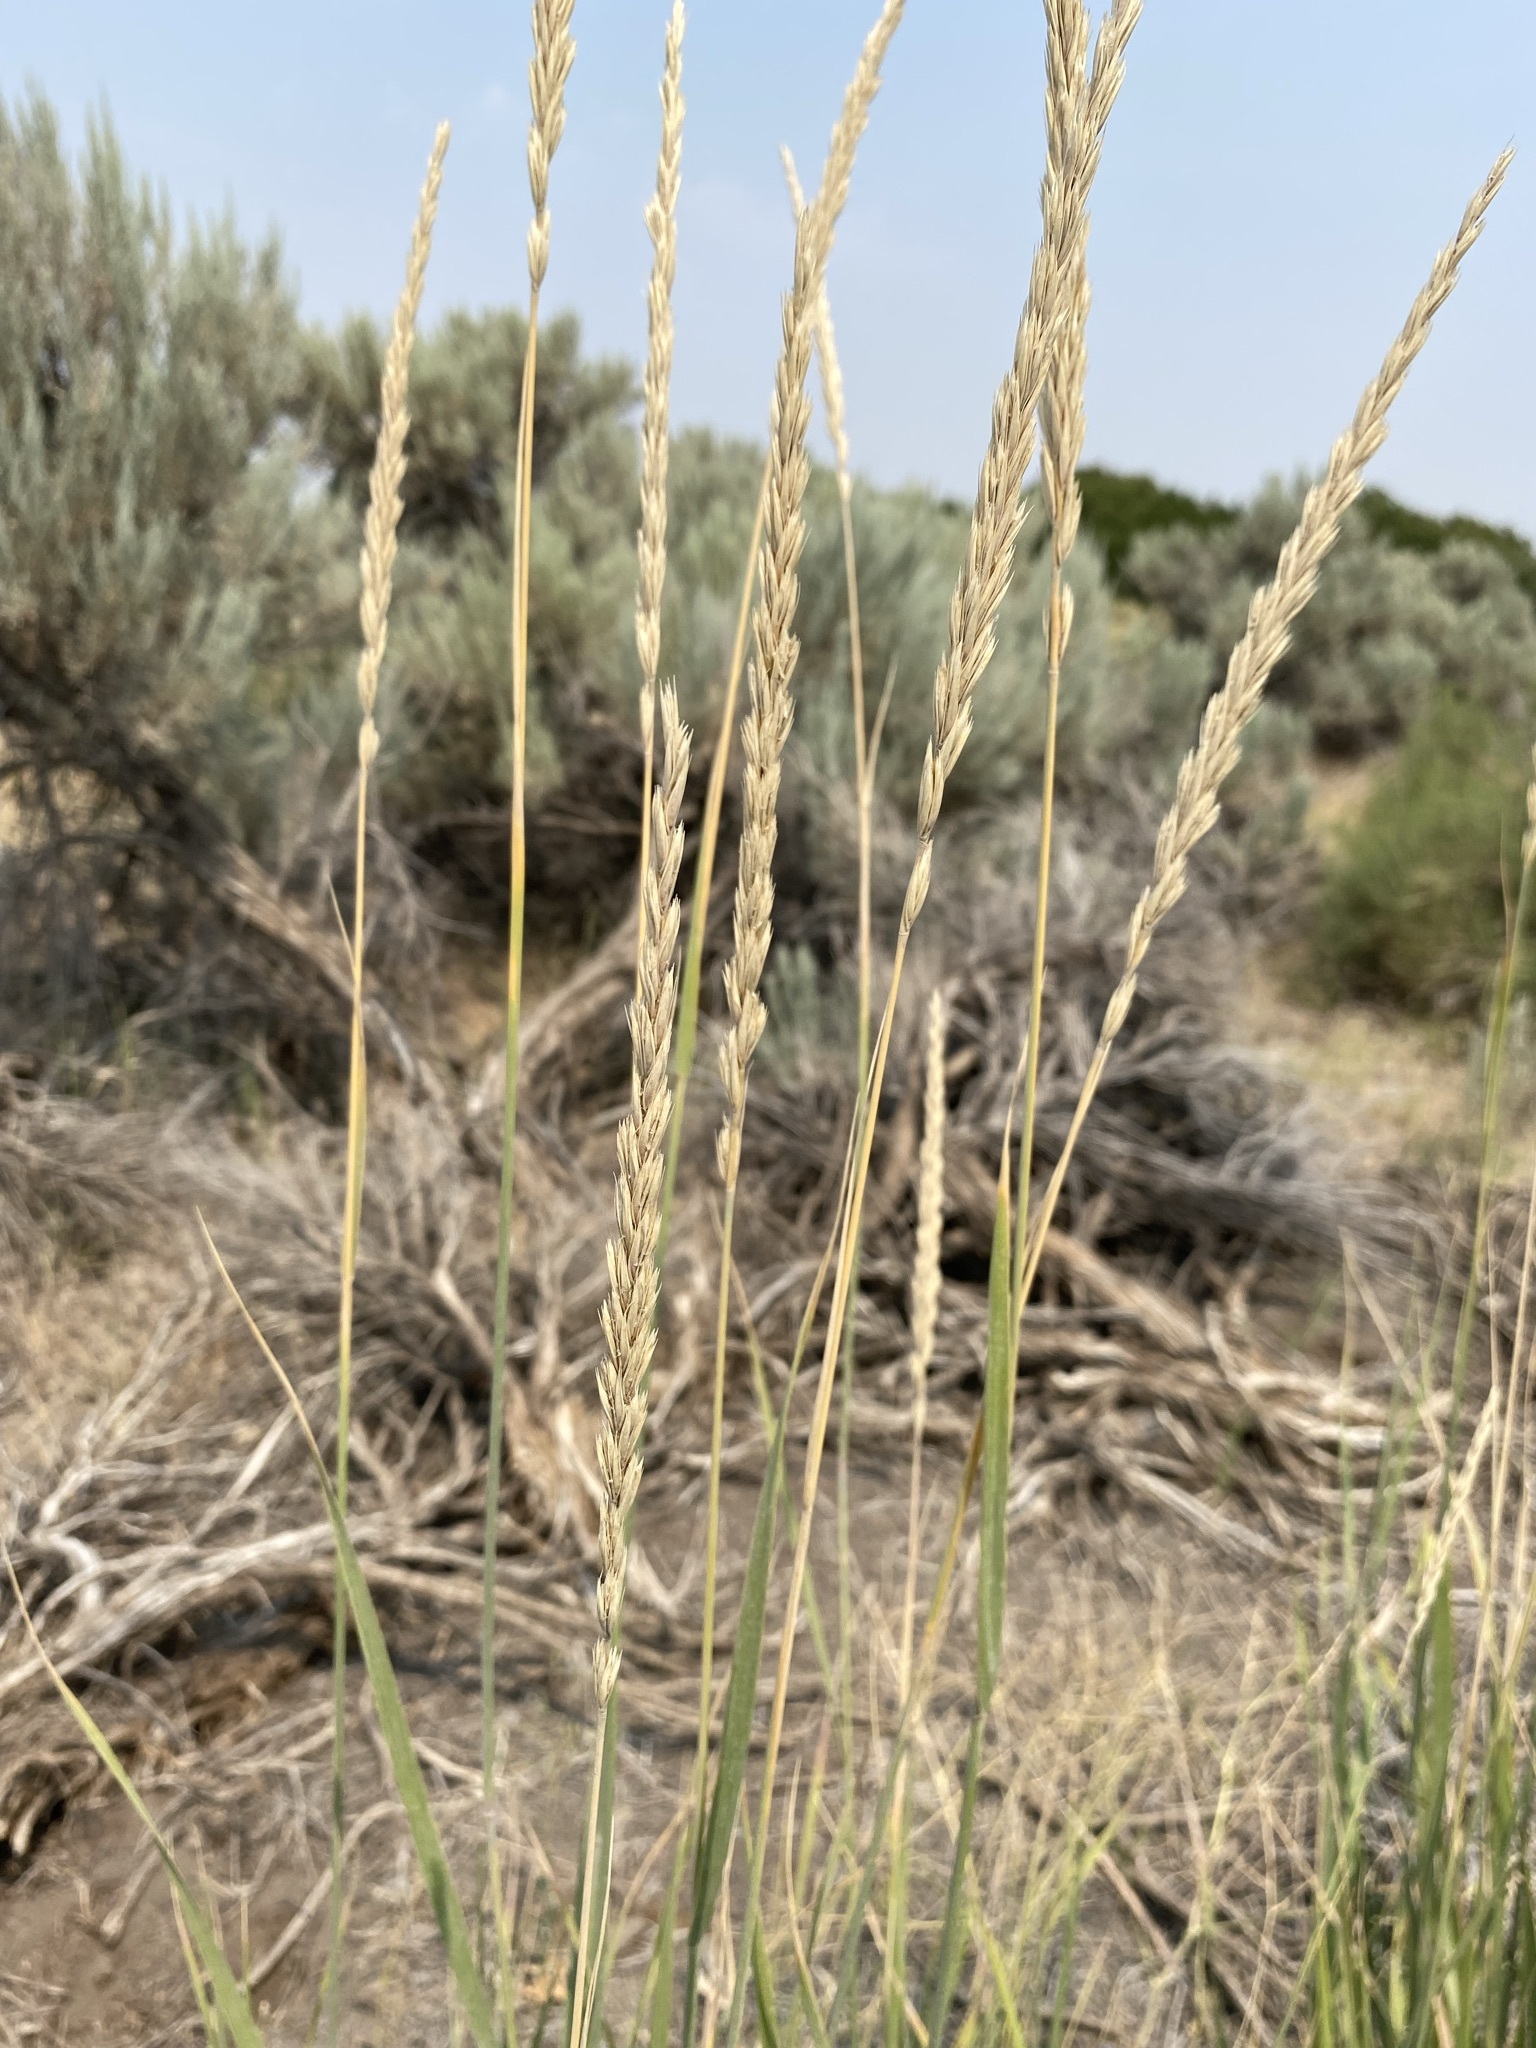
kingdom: Plantae
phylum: Tracheophyta
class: Liliopsida
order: Poales
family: Poaceae
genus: Leymus
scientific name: Leymus cinereus
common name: Basin wild rye
